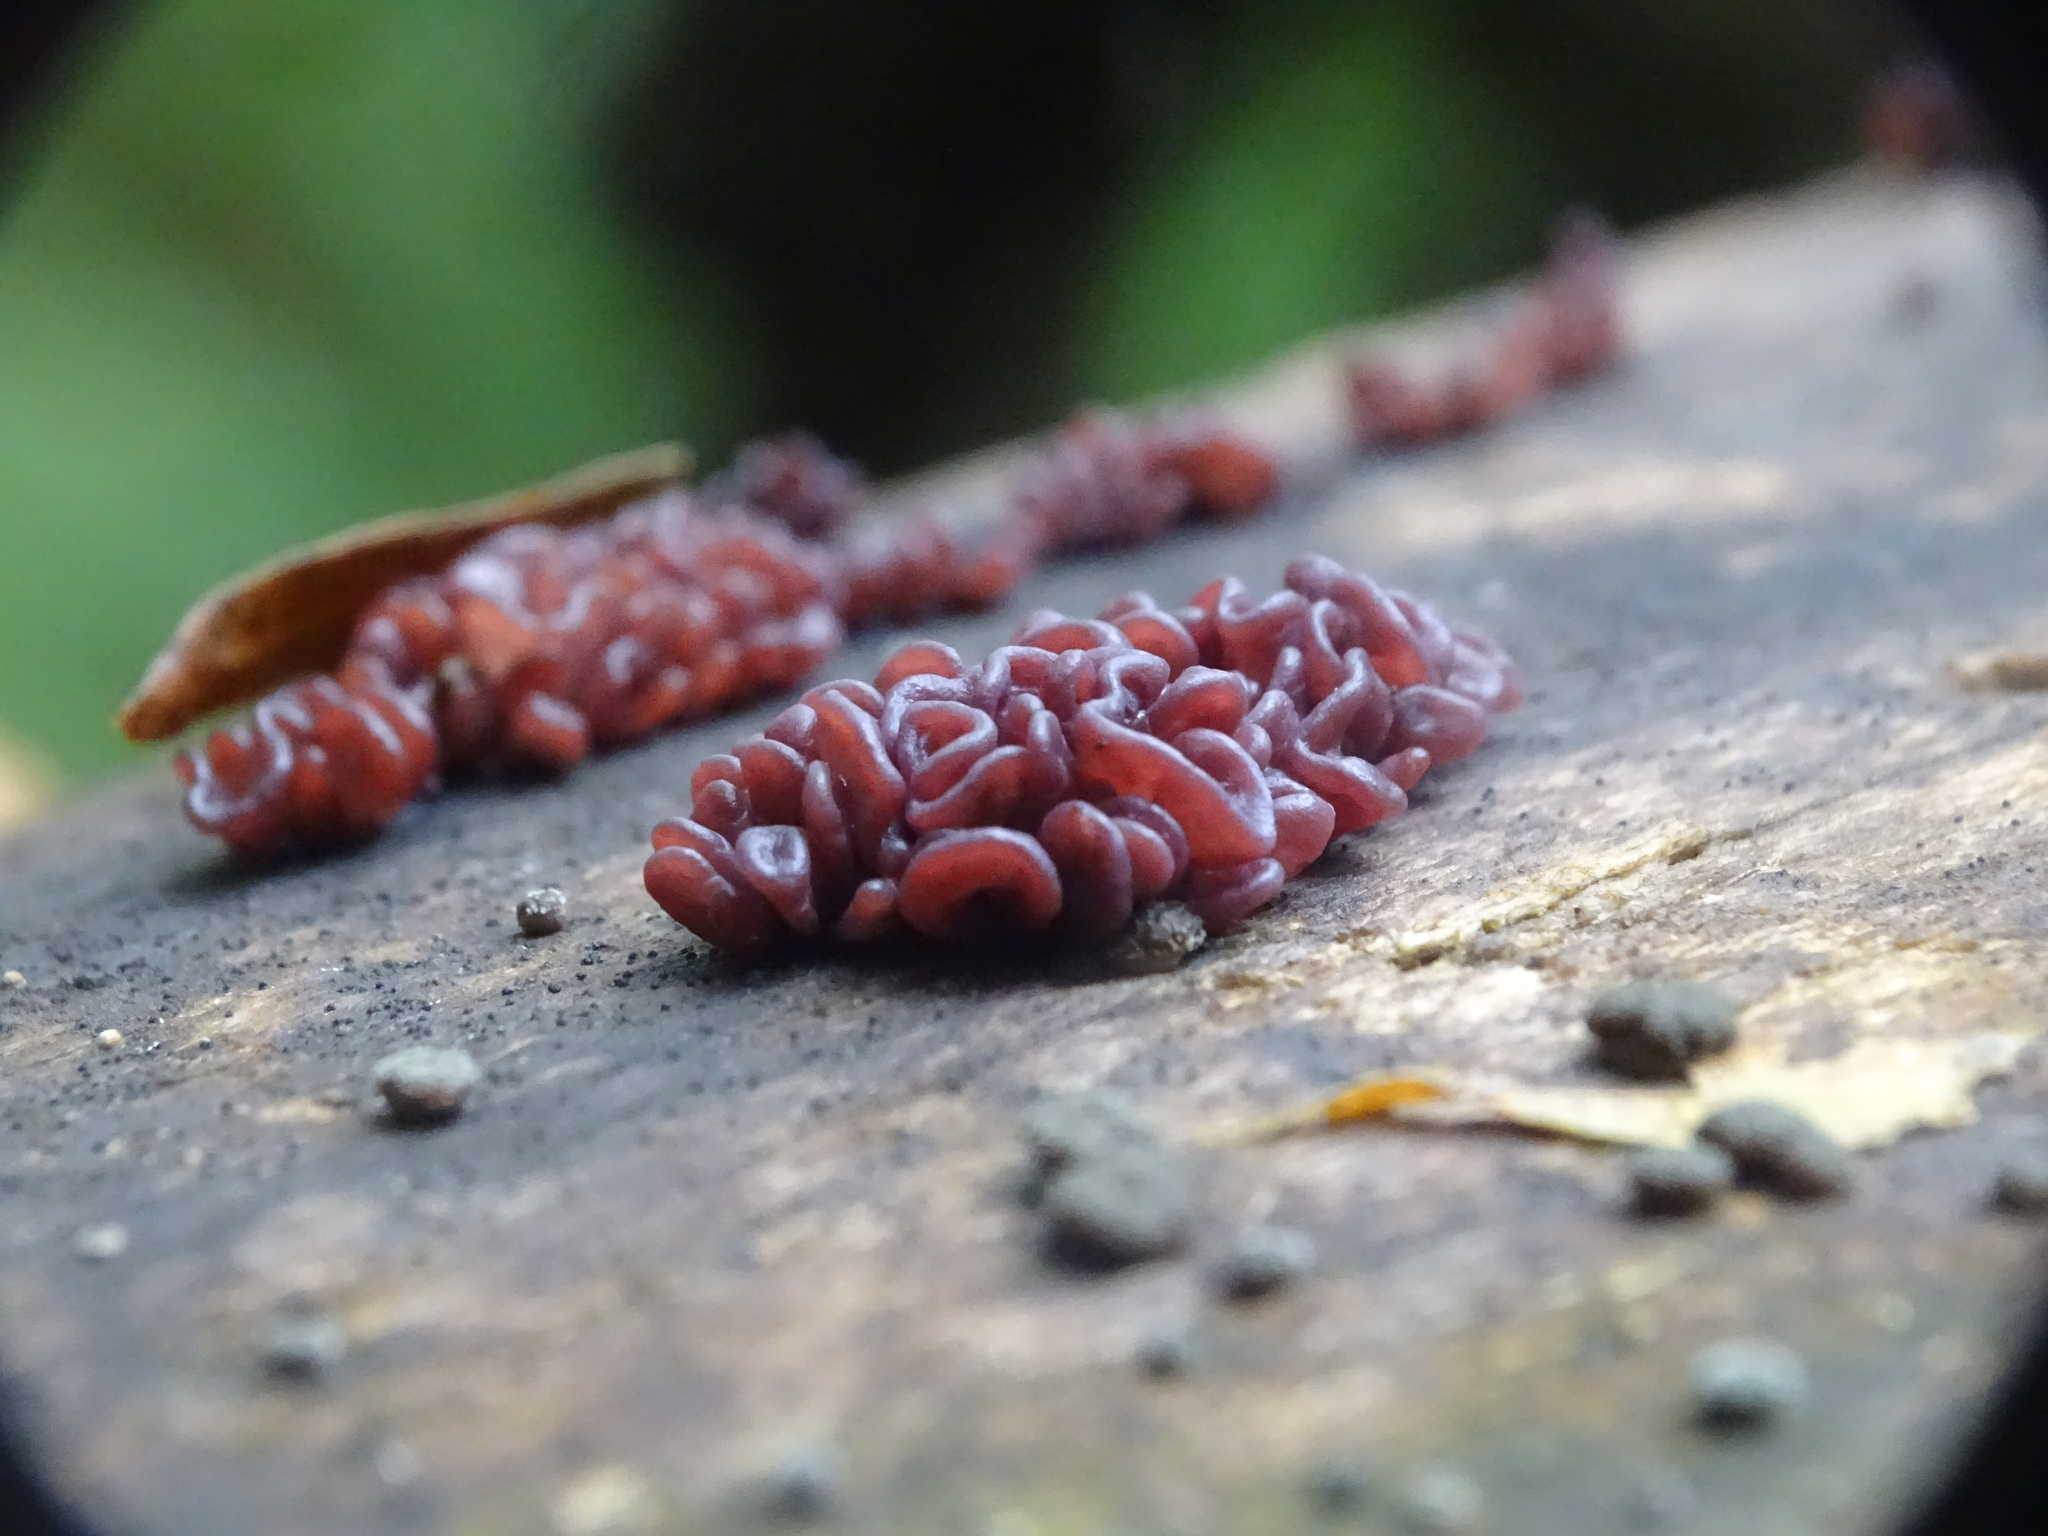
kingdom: Fungi
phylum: Ascomycota
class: Leotiomycetes
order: Helotiales
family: Gelatinodiscaceae
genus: Ascocoryne
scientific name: Ascocoryne sarcoides
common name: Purple jellydisc
